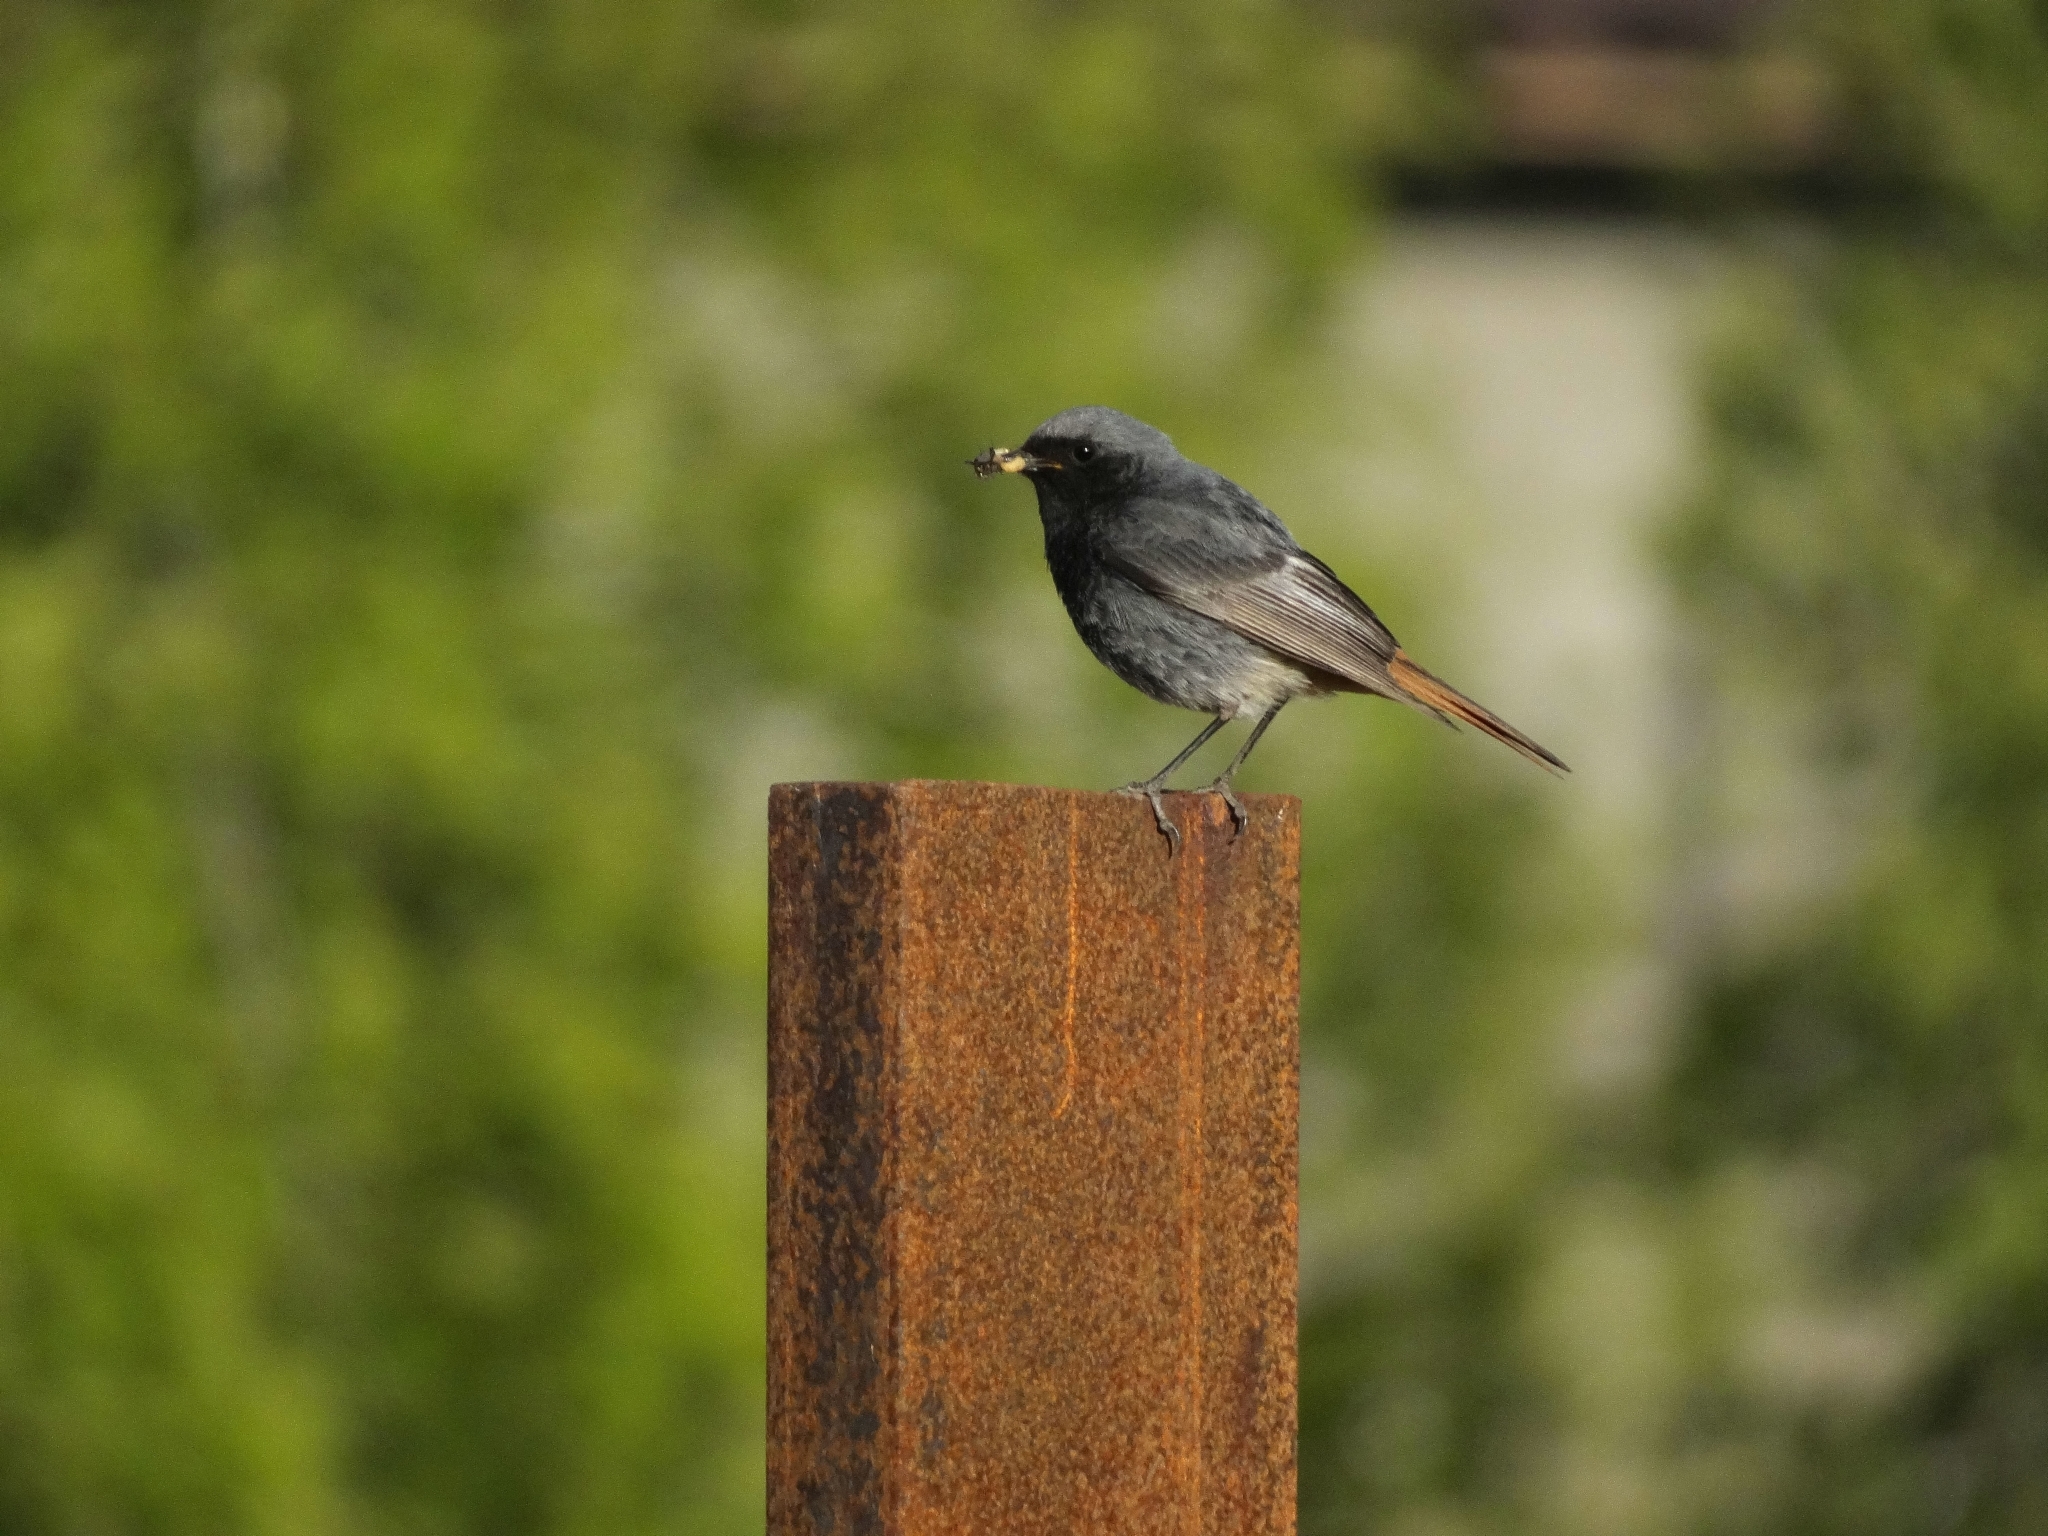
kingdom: Animalia
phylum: Chordata
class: Aves
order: Passeriformes
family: Muscicapidae
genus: Phoenicurus
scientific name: Phoenicurus ochruros
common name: Black redstart
